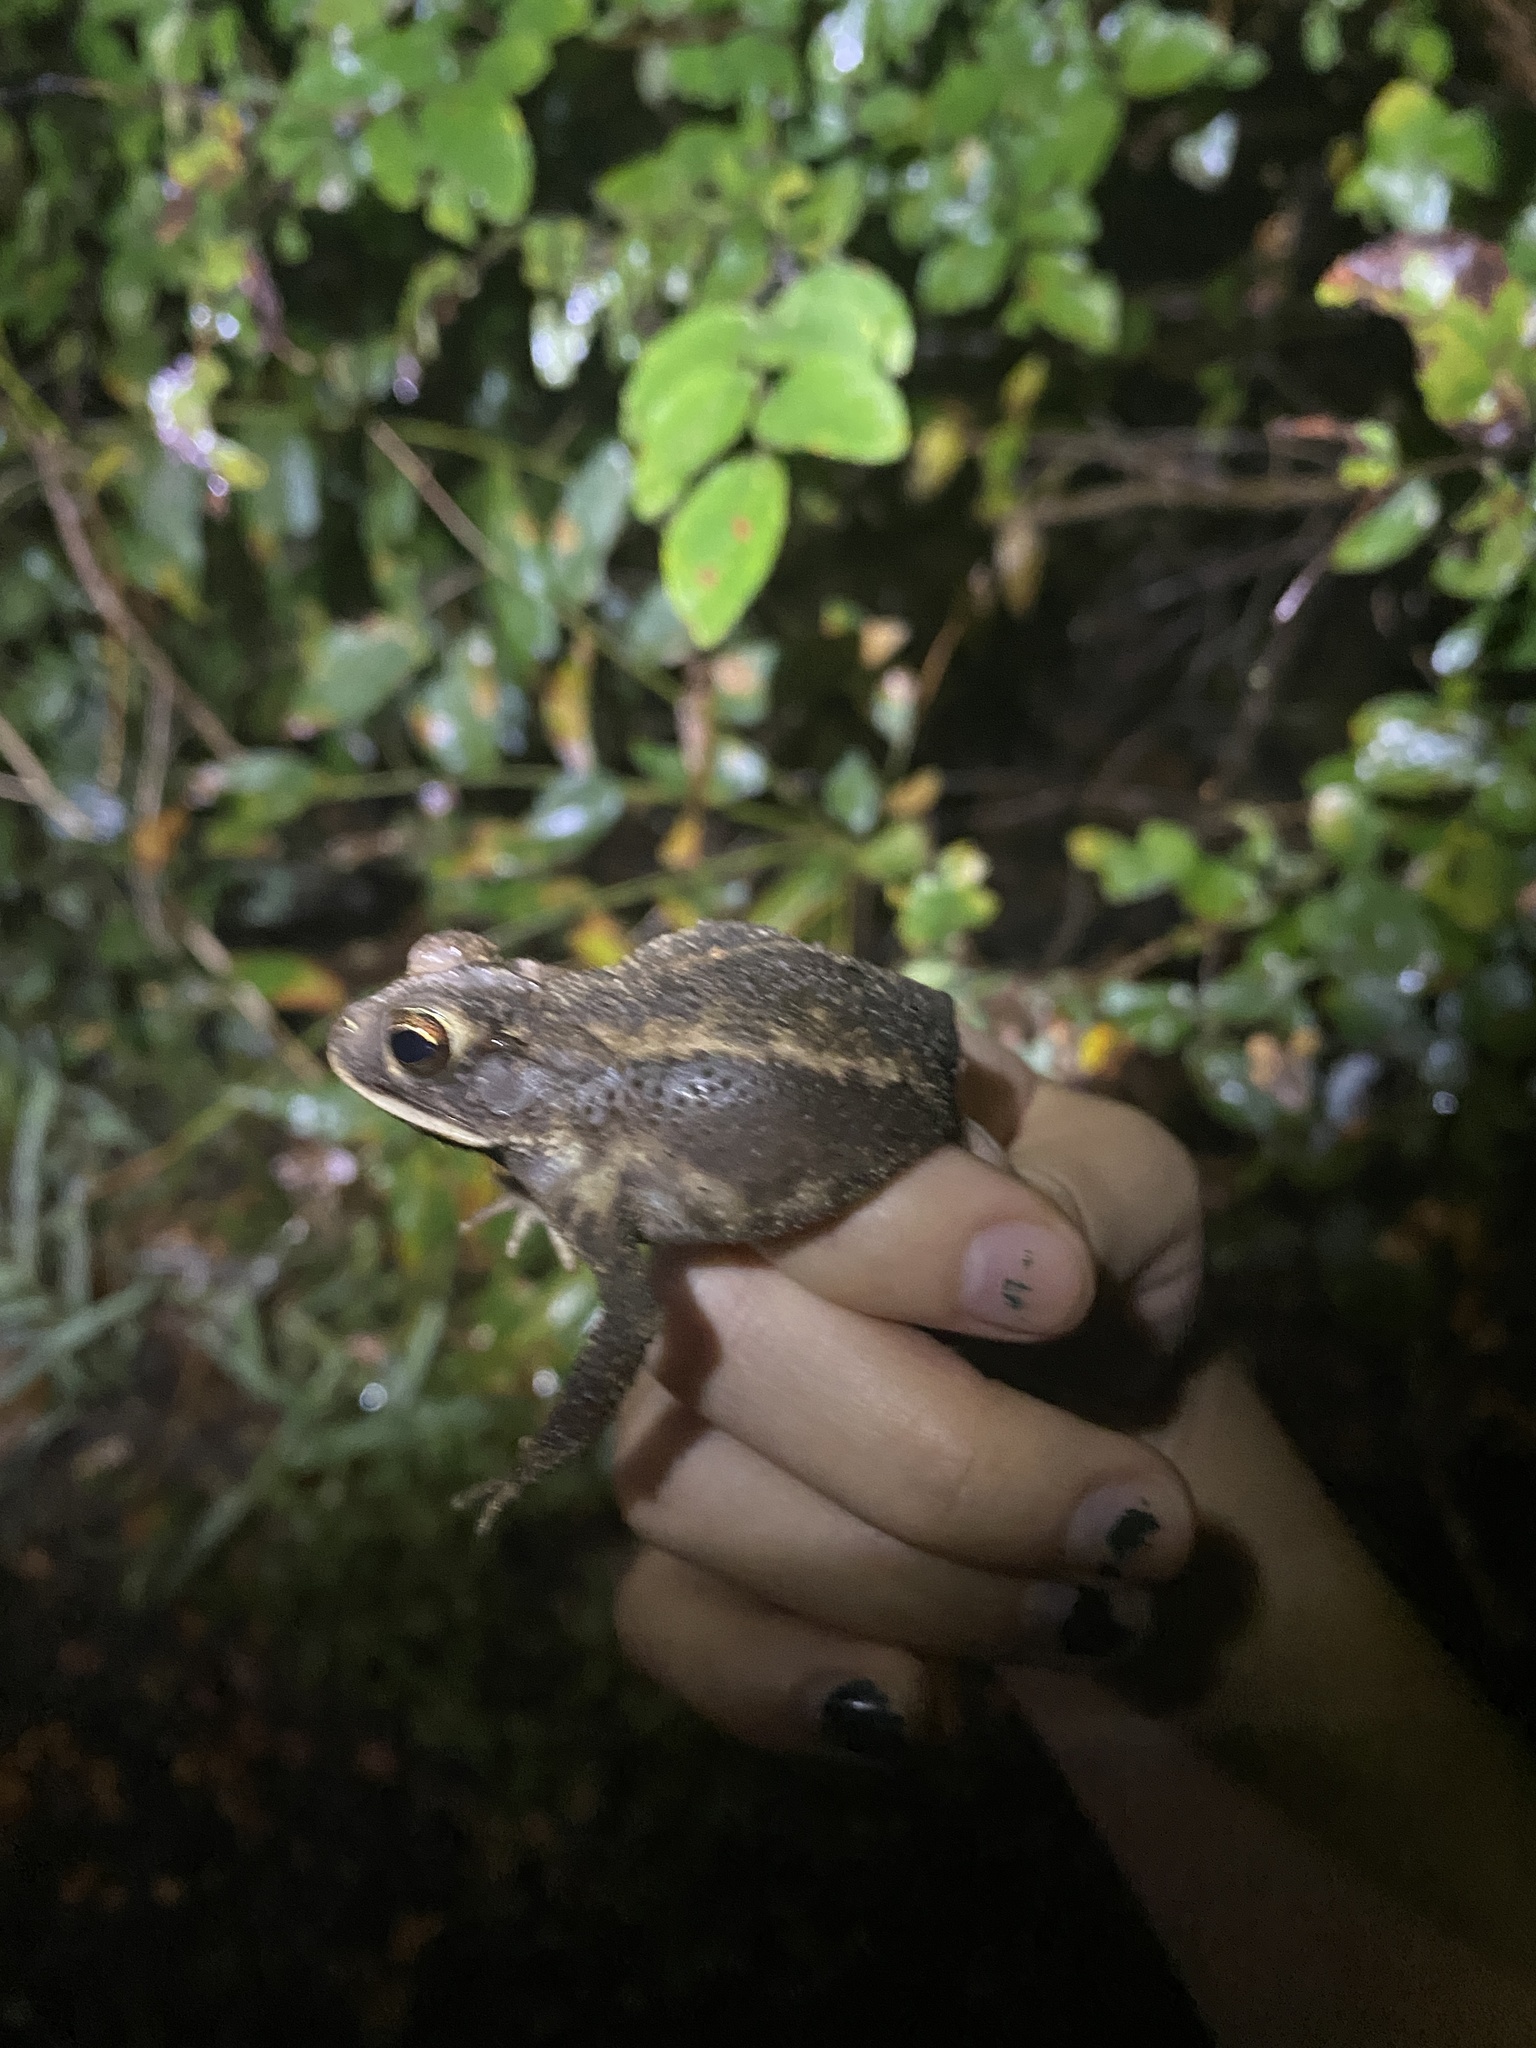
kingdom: Animalia
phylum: Chordata
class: Amphibia
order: Anura
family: Bufonidae
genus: Incilius
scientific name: Incilius nebulifer
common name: Gulf coast toad
